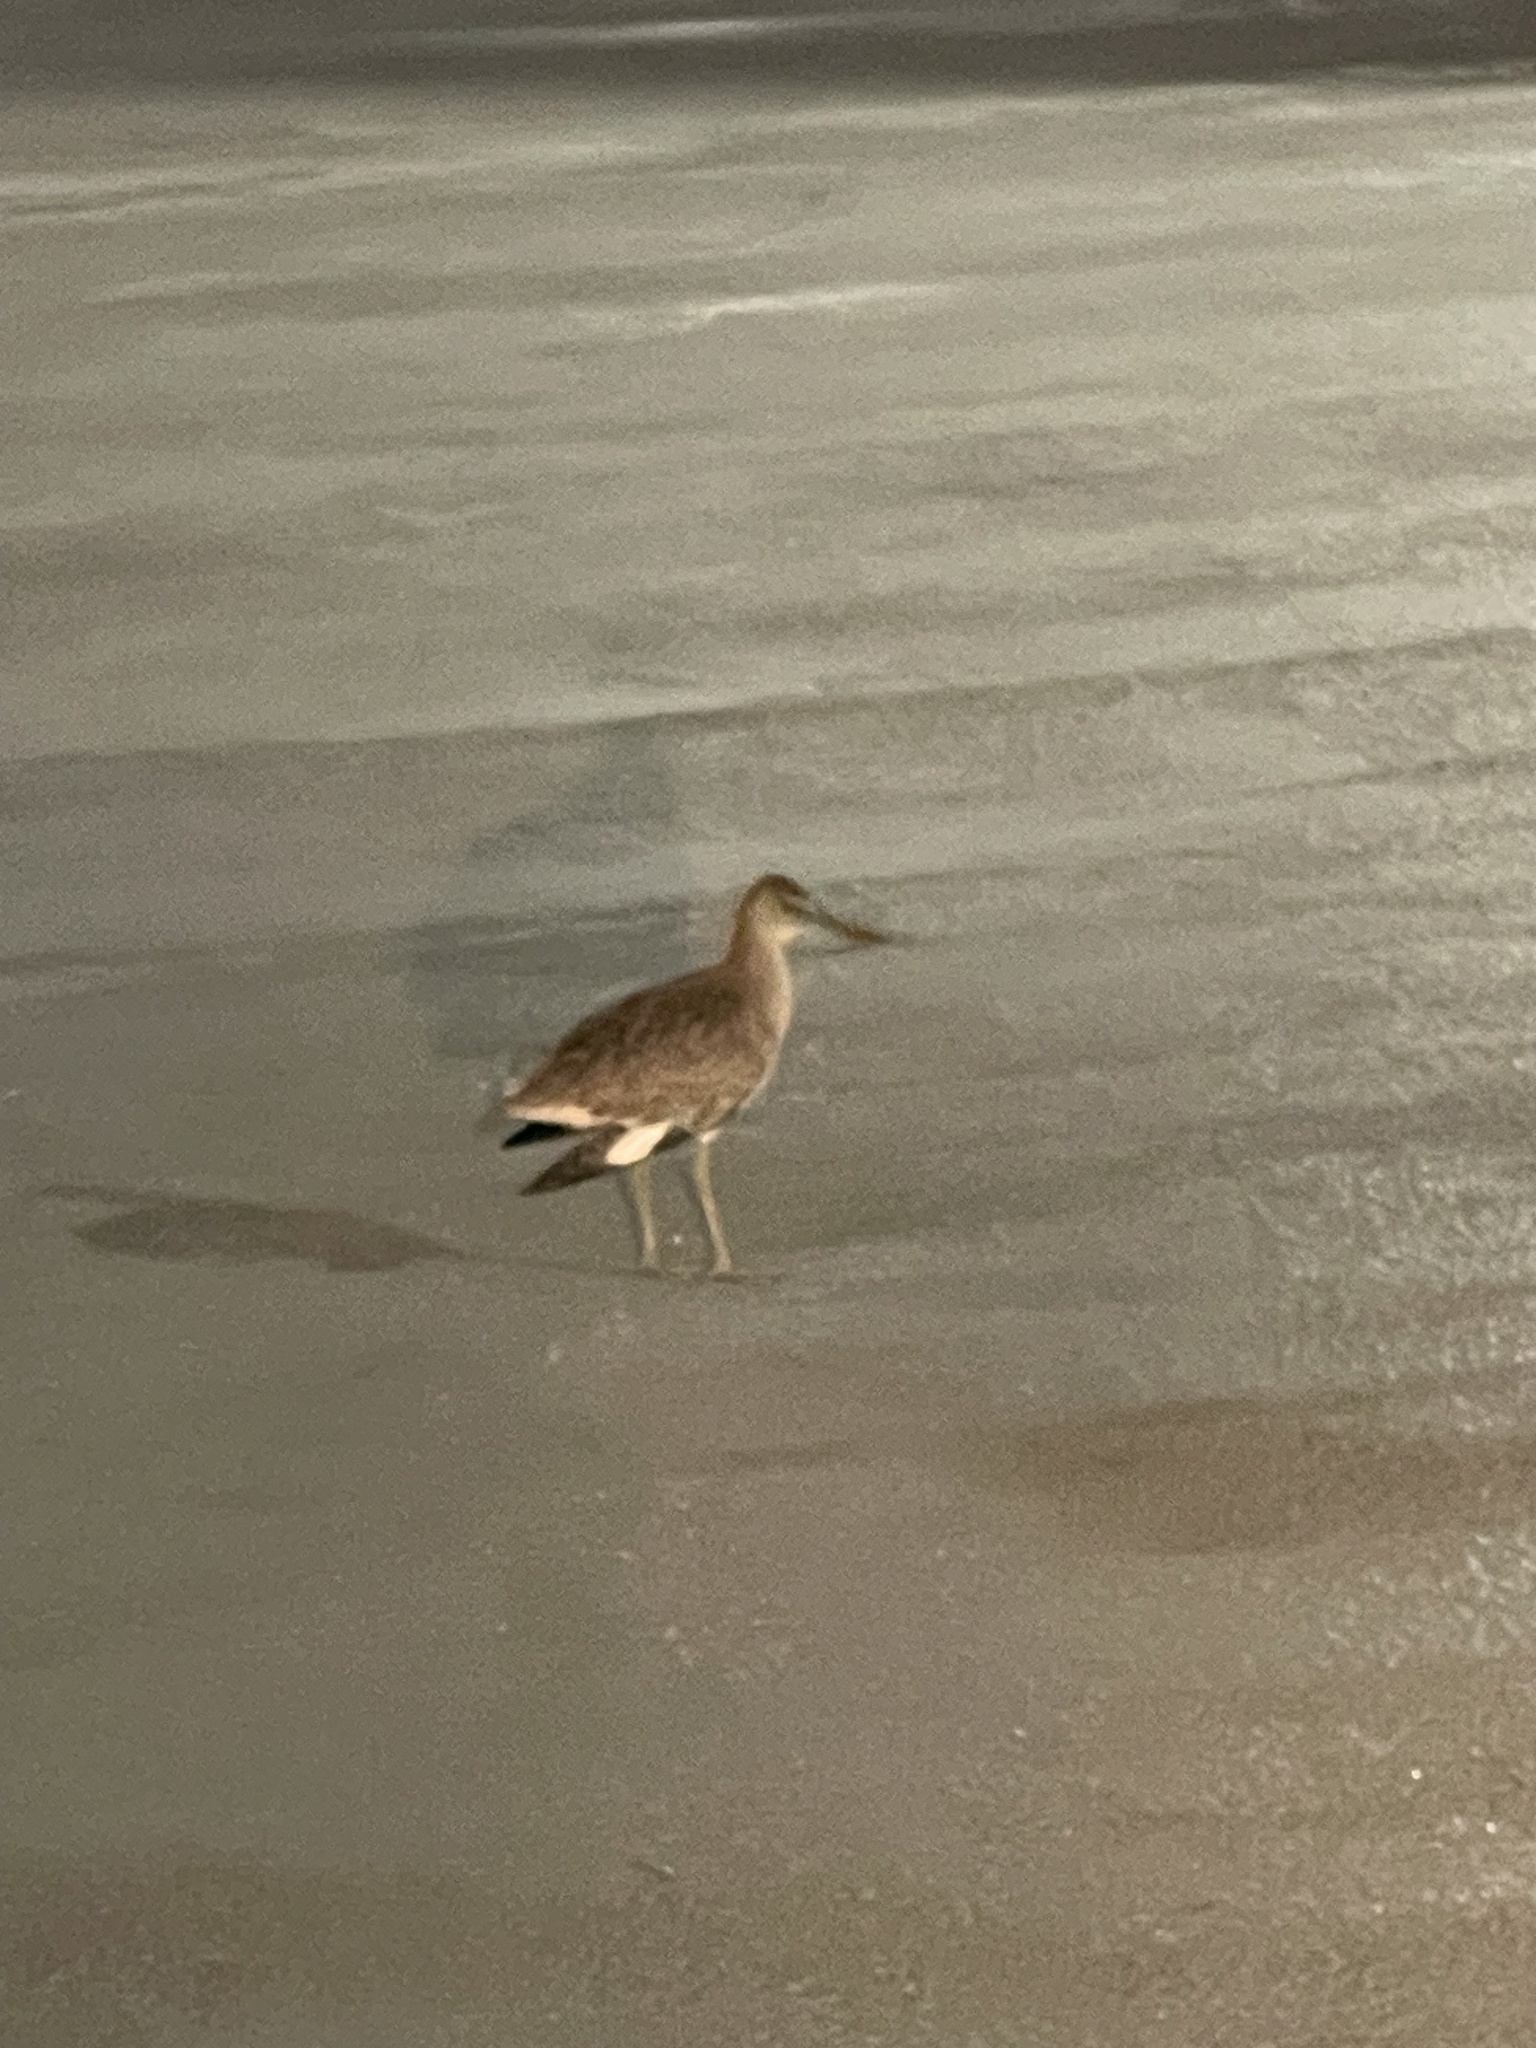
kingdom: Animalia
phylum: Chordata
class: Aves
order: Charadriiformes
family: Scolopacidae
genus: Tringa
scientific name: Tringa semipalmata
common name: Willet
